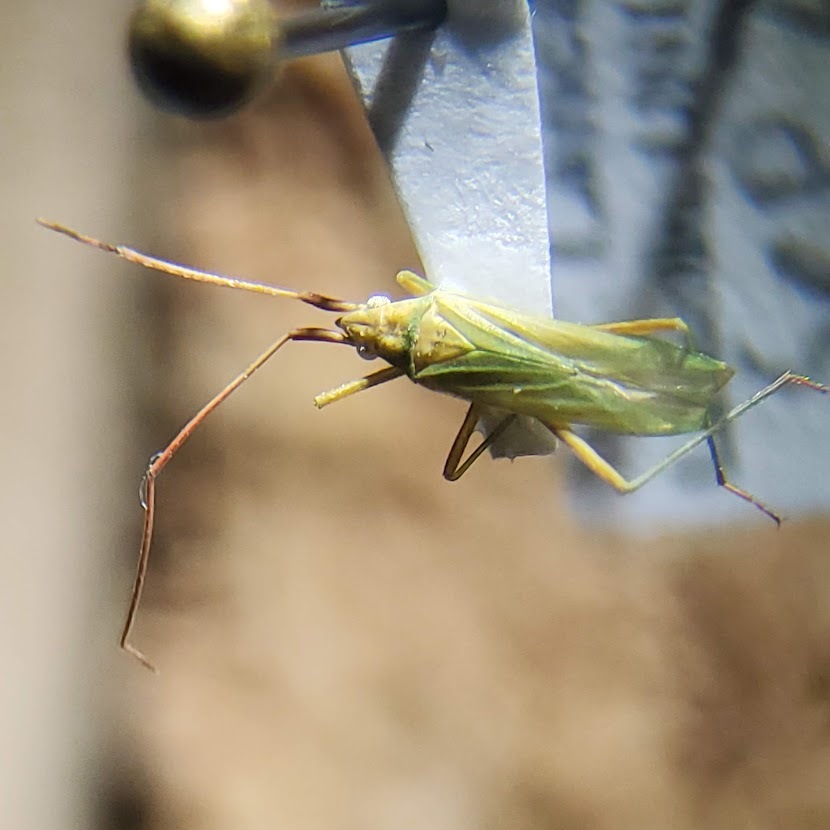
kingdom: Animalia
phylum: Arthropoda
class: Insecta
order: Hemiptera
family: Miridae
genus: Megaloceroea
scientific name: Megaloceroea recticornis
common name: Plant bug
